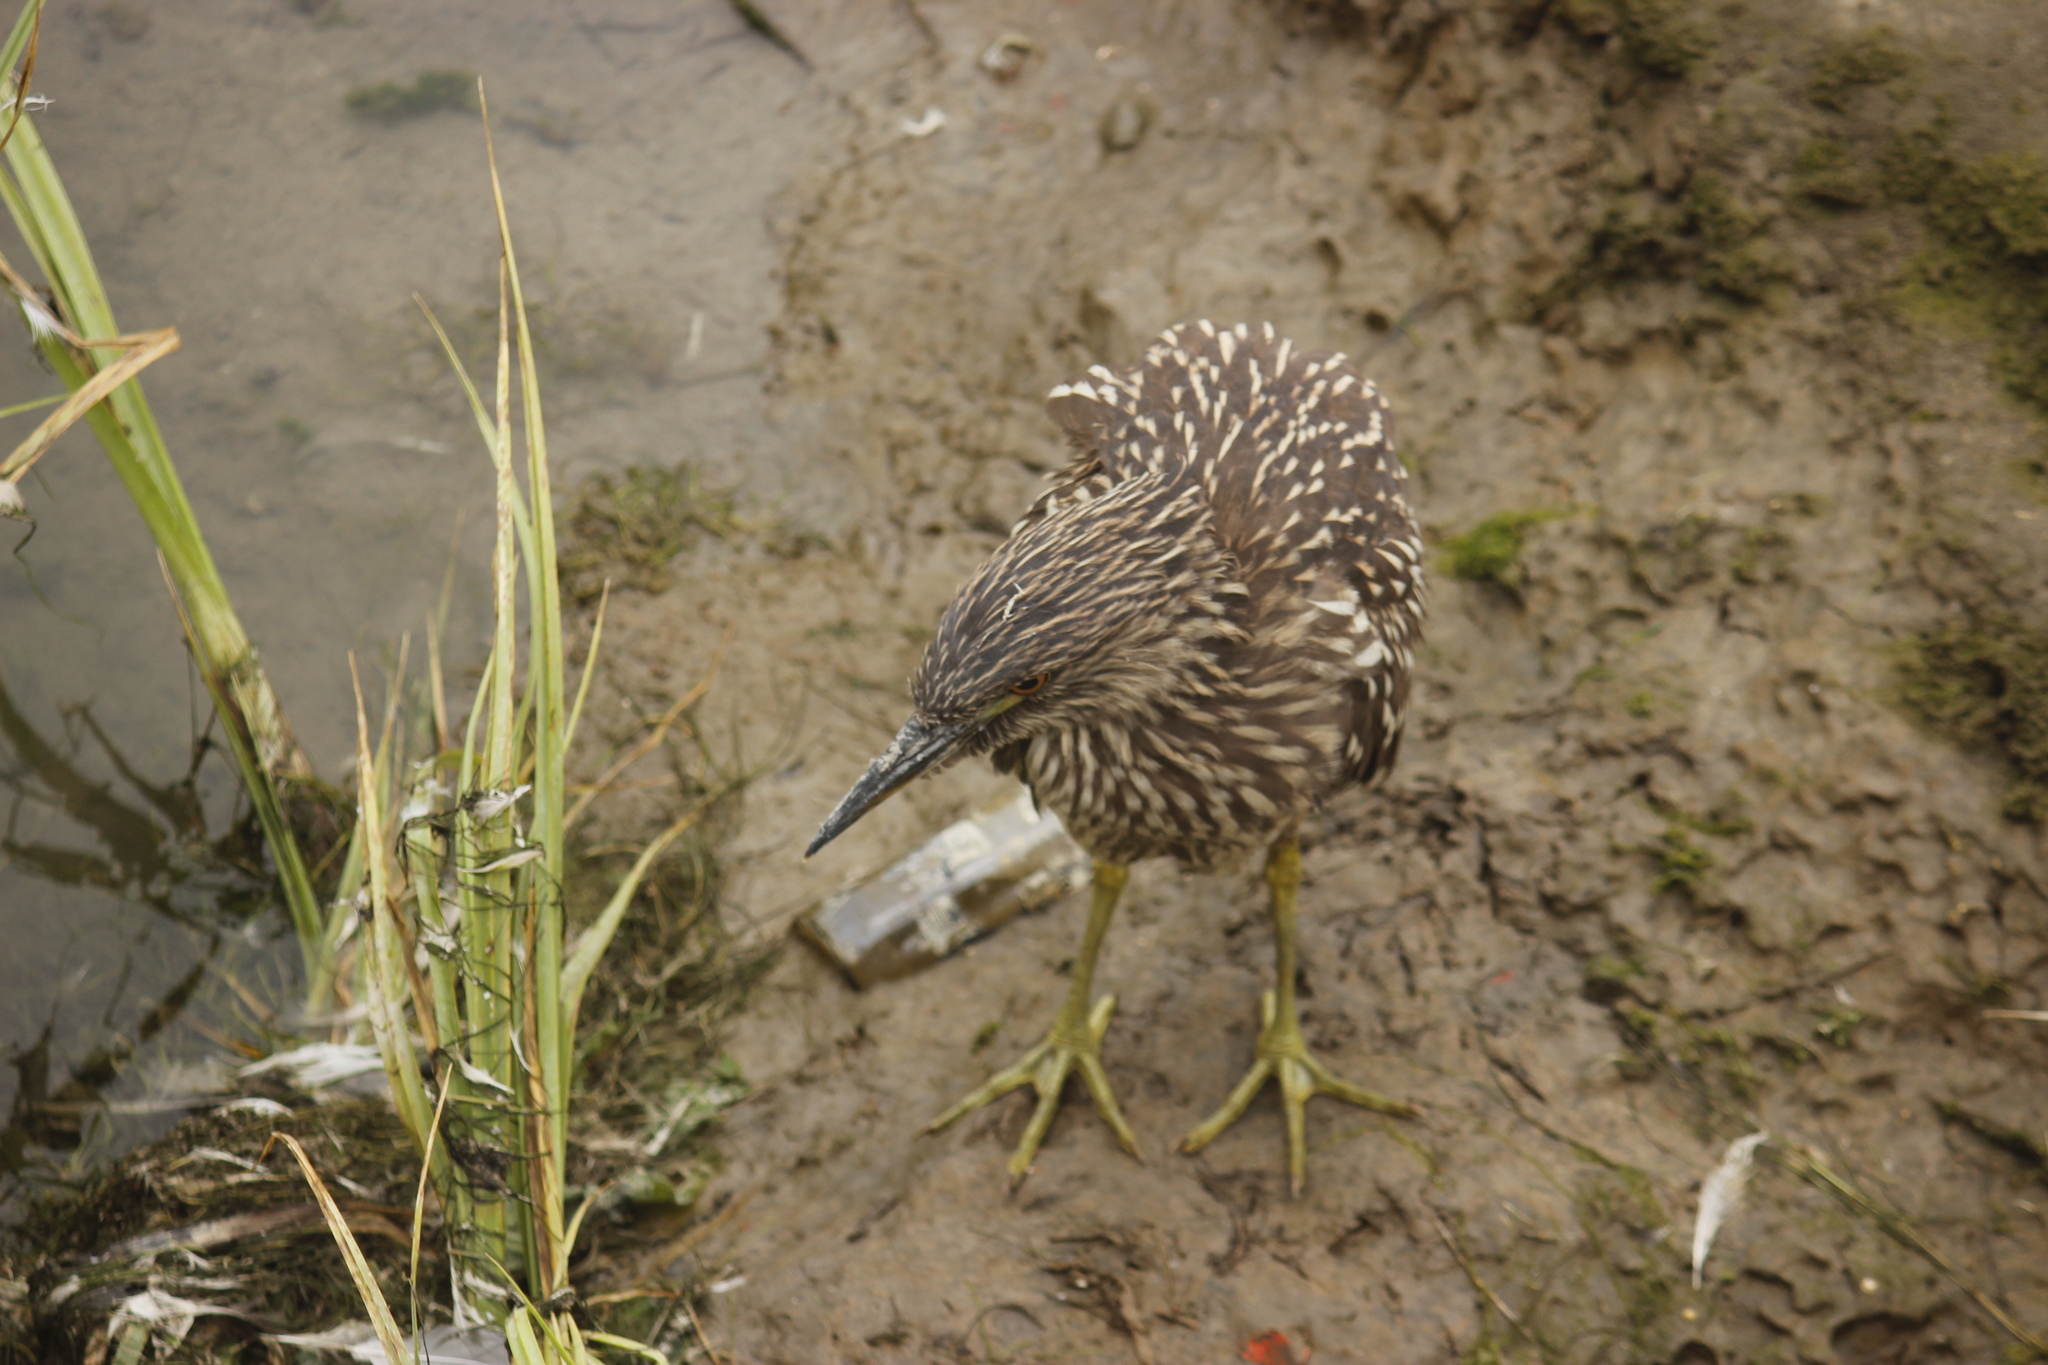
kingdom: Animalia
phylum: Chordata
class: Aves
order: Pelecaniformes
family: Ardeidae
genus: Nycticorax
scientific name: Nycticorax nycticorax
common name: Black-crowned night heron
